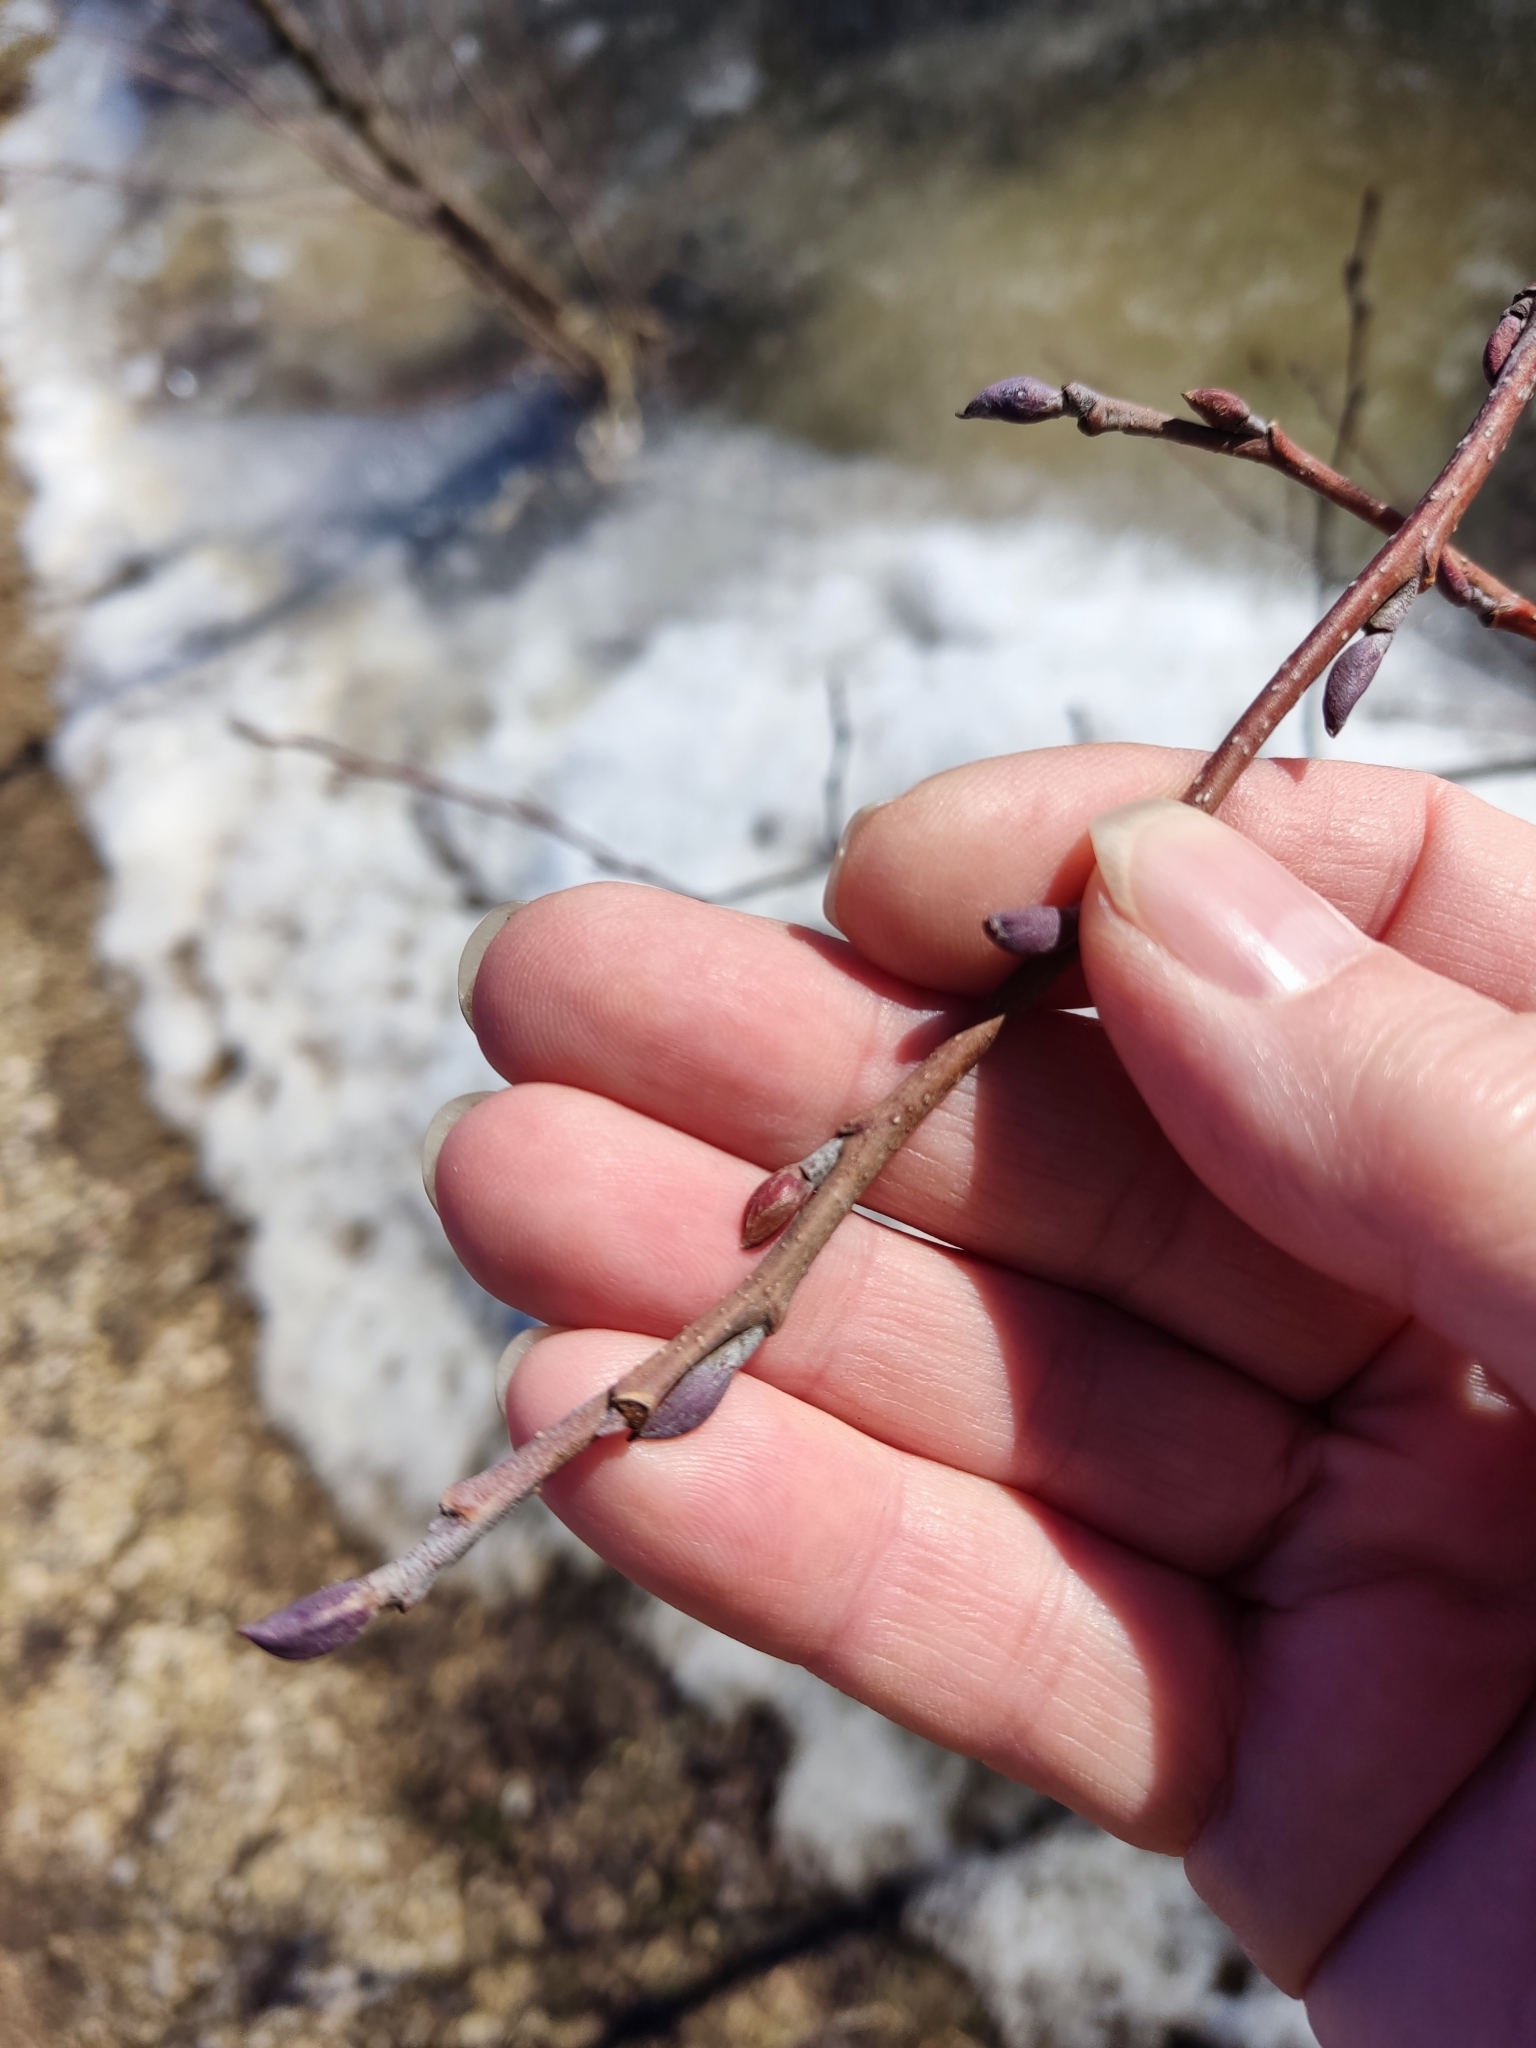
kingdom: Plantae
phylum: Tracheophyta
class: Magnoliopsida
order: Fagales
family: Betulaceae
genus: Alnus
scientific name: Alnus glutinosa
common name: Black alder
